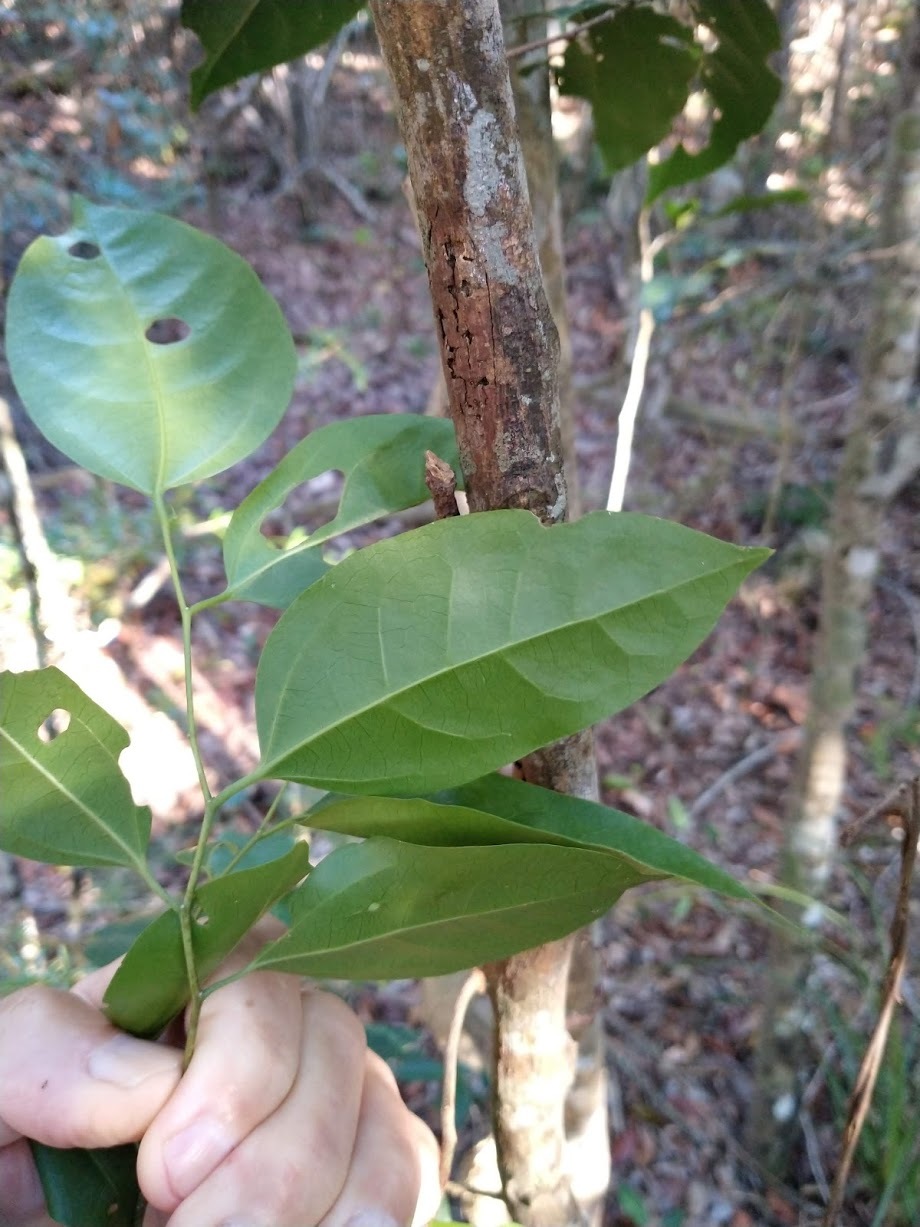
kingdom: Plantae
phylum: Tracheophyta
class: Magnoliopsida
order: Rosales
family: Cannabaceae
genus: Celtis
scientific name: Celtis paniculata
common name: Silky celtis
